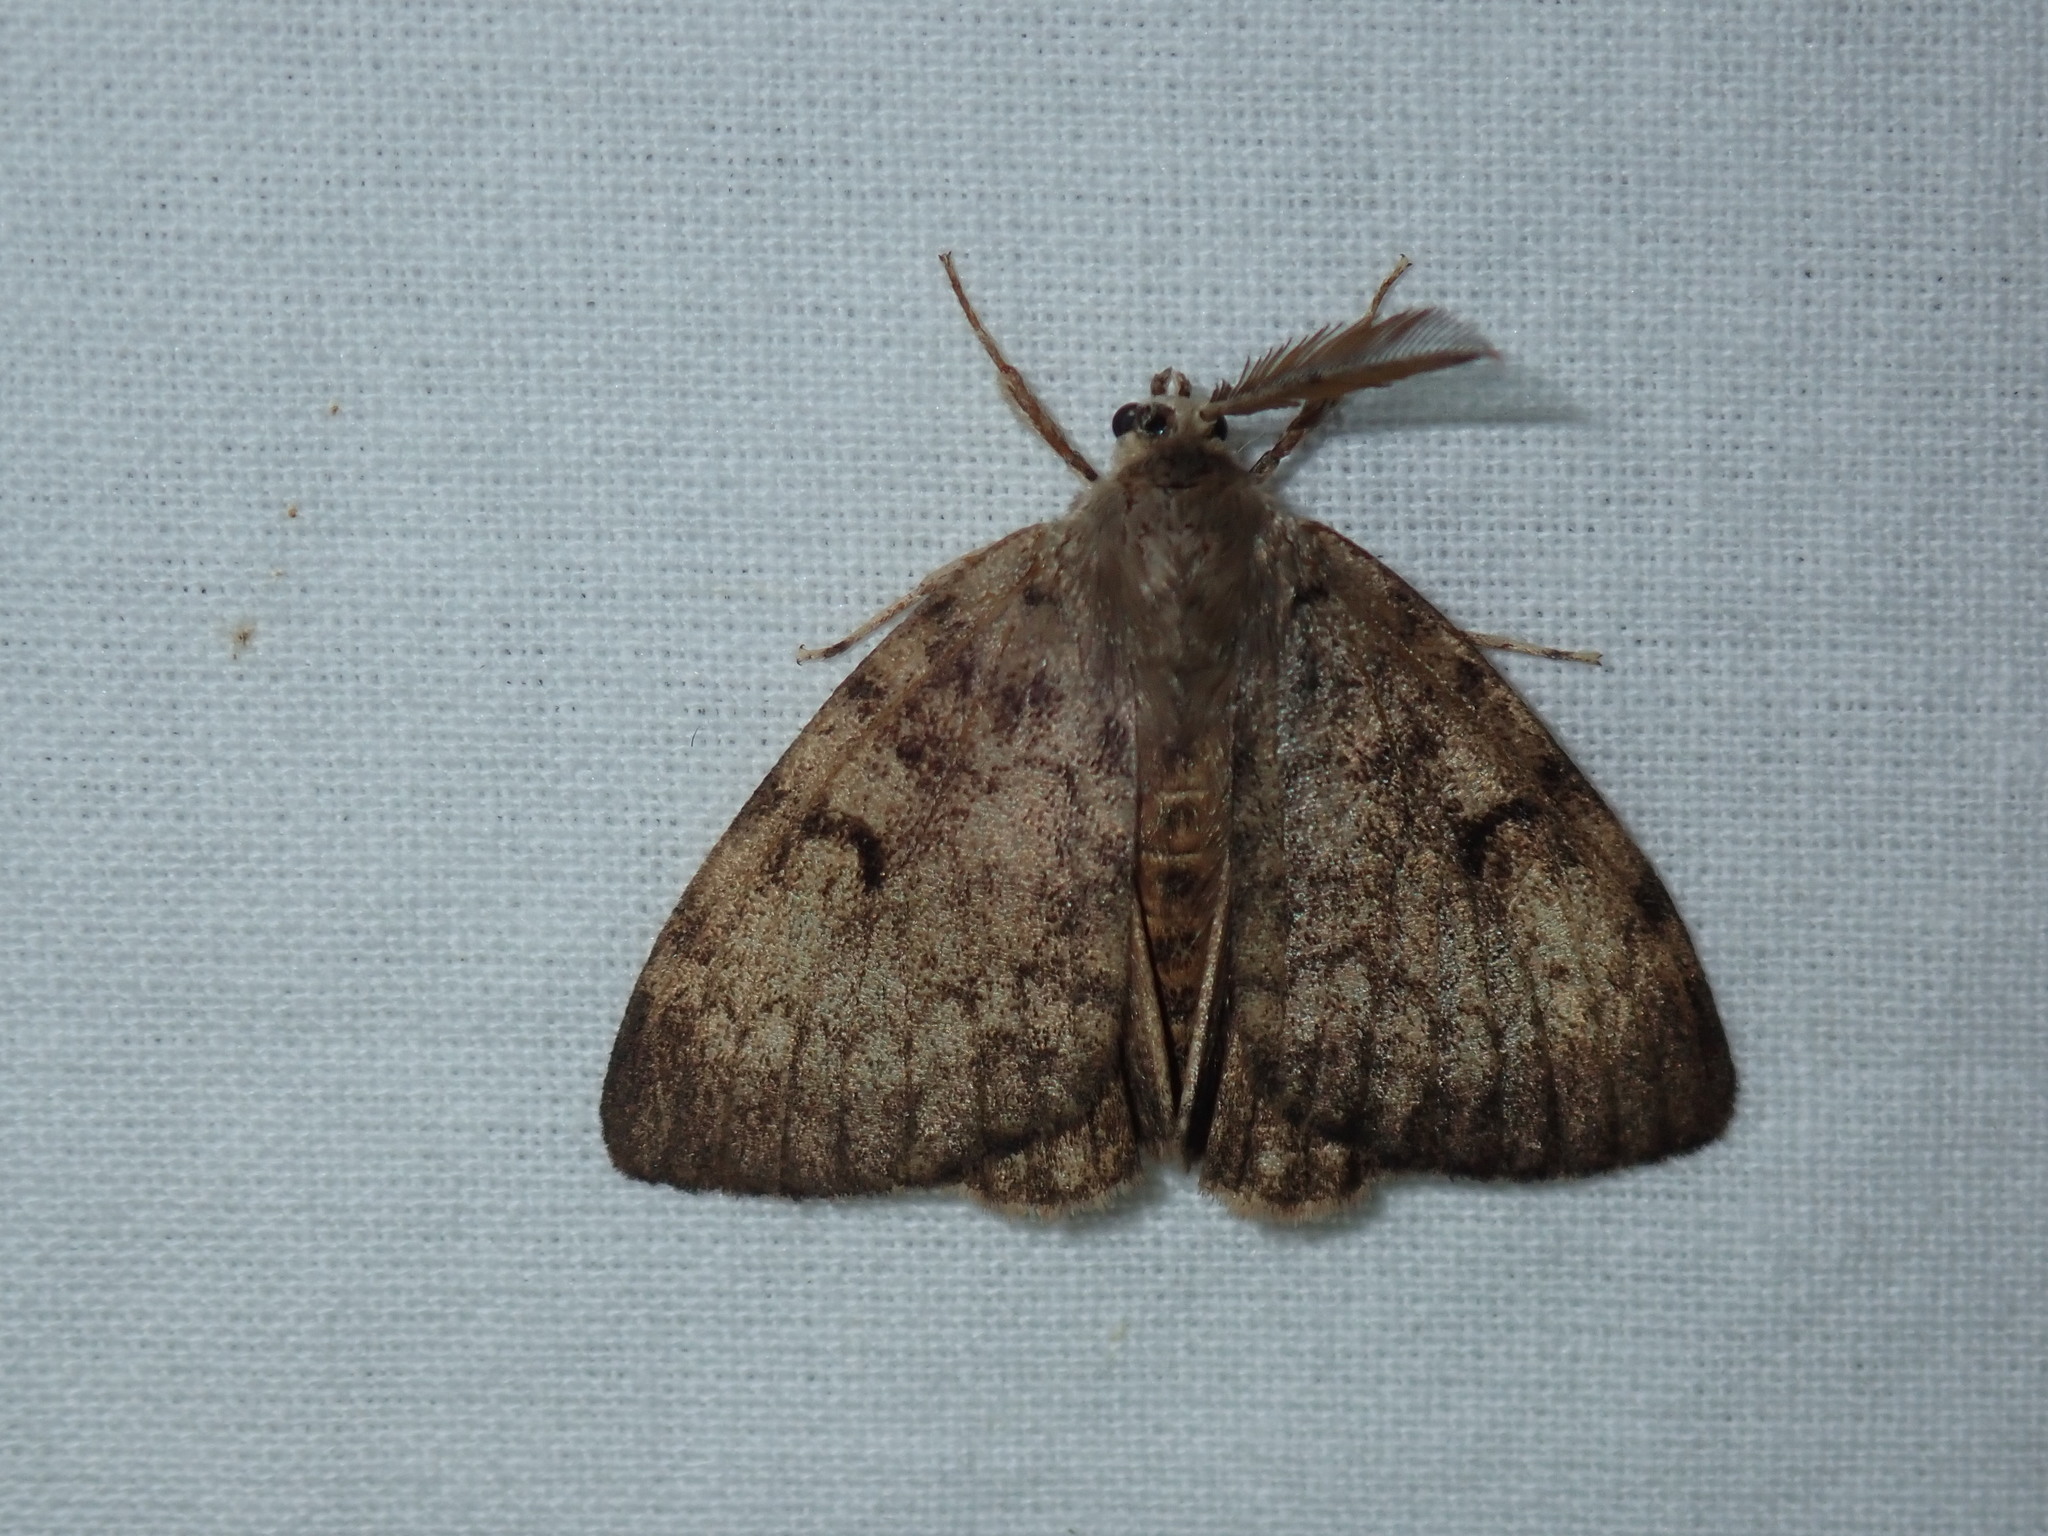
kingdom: Animalia
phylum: Arthropoda
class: Insecta
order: Lepidoptera
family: Erebidae
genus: Lymantria
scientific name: Lymantria dispar
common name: Gypsy moth
